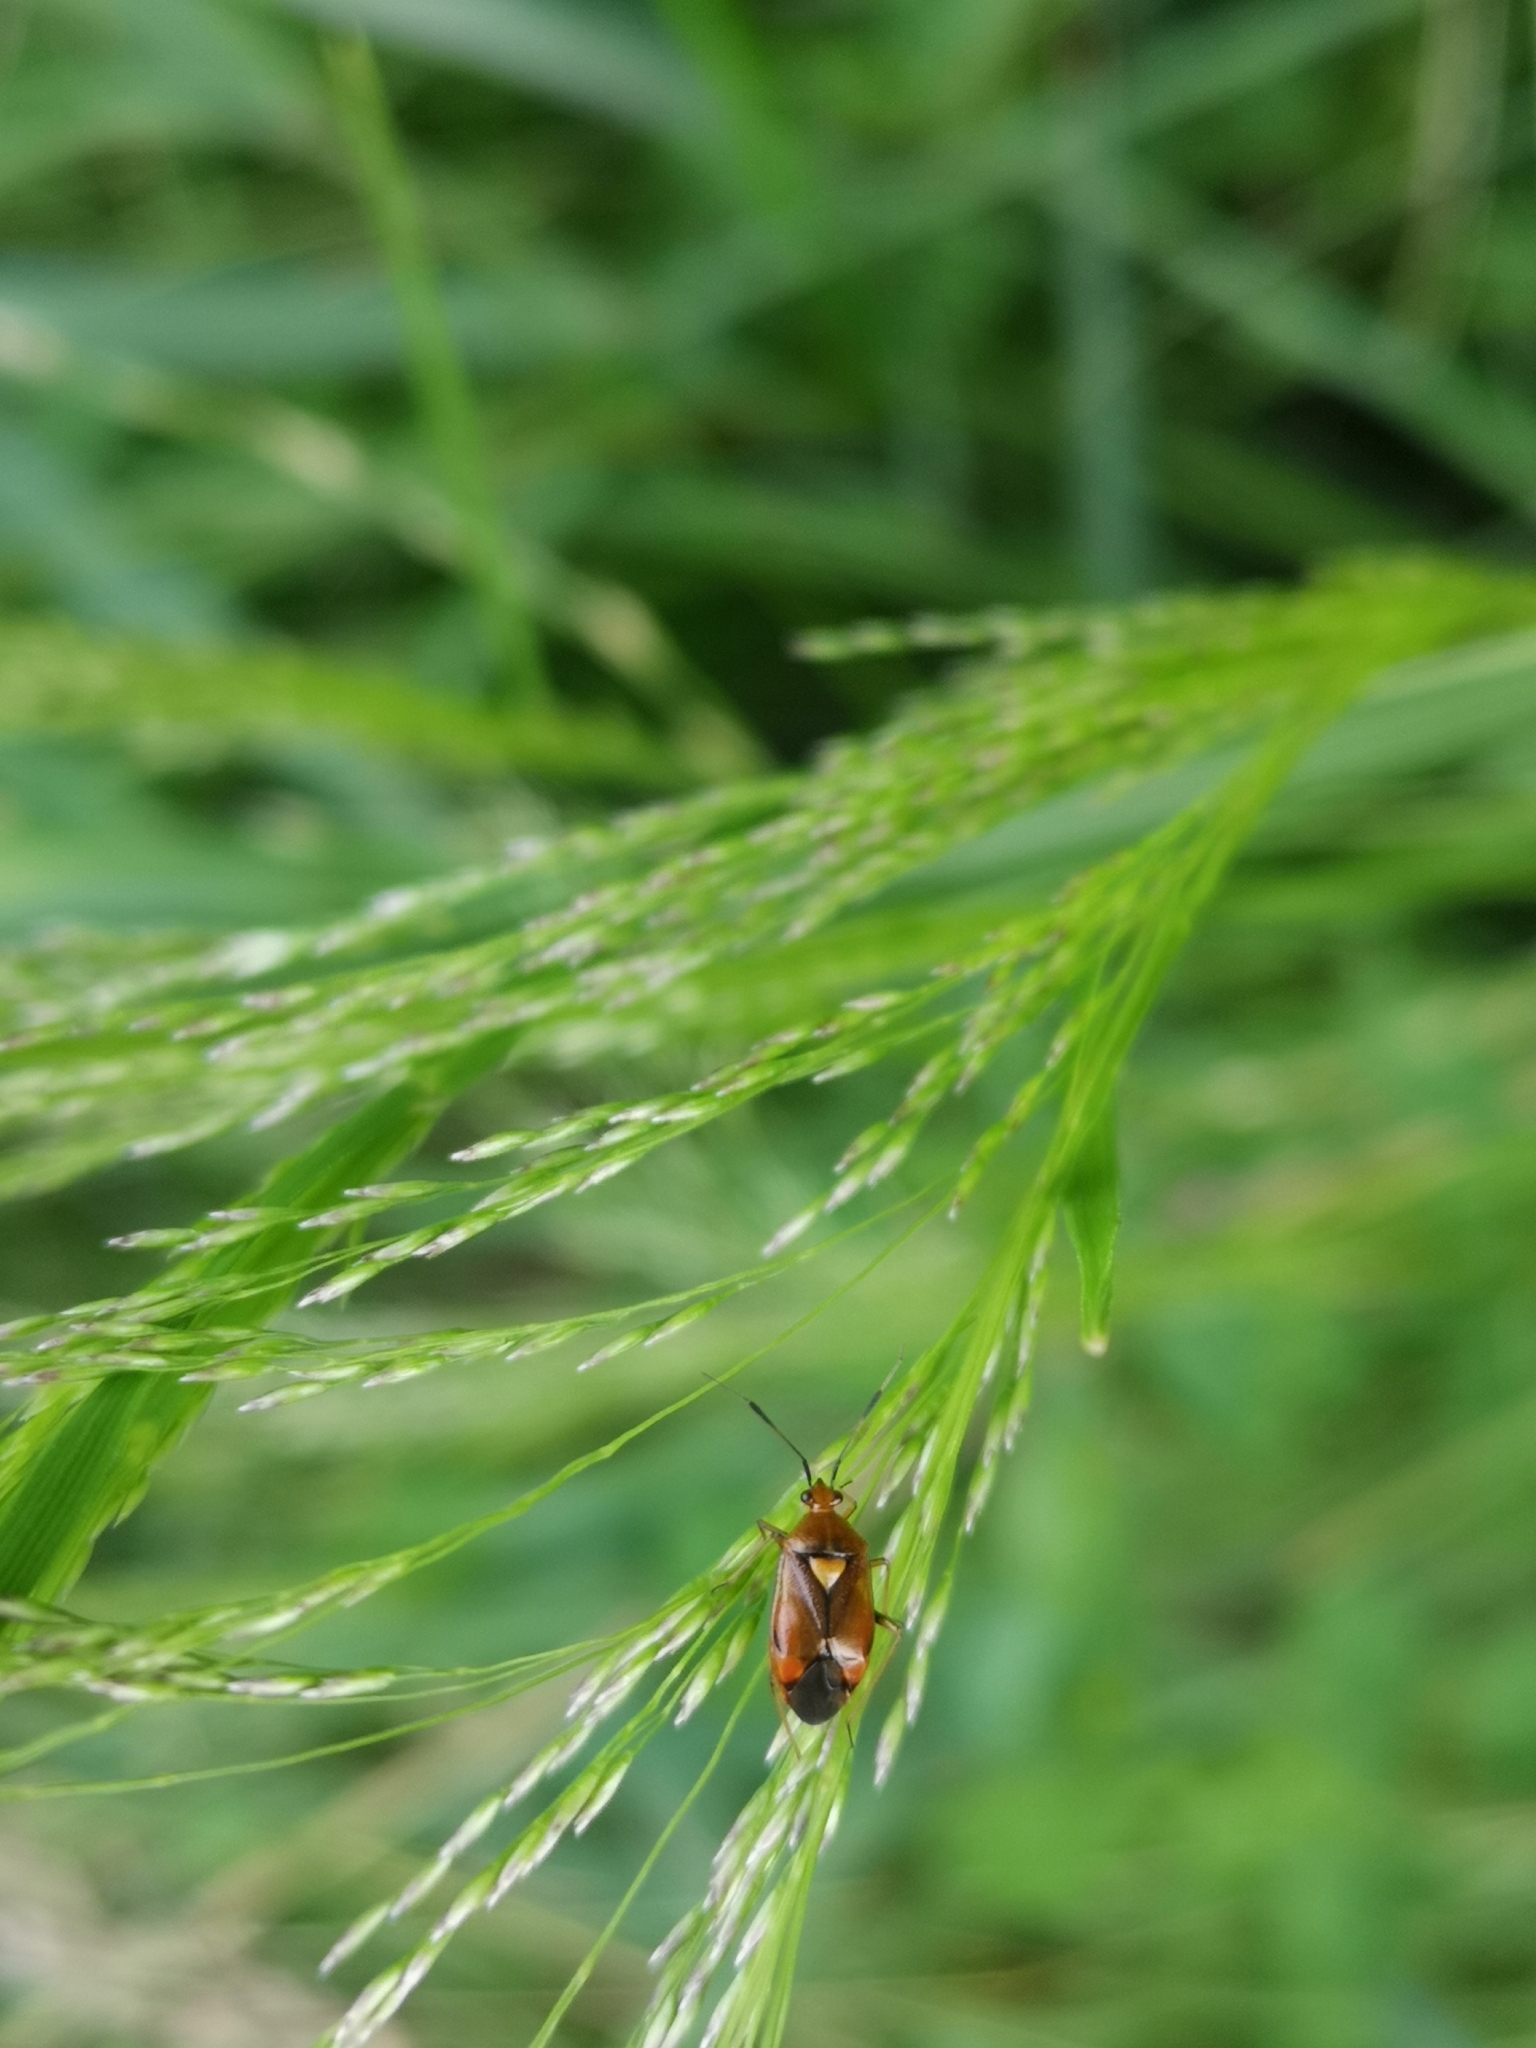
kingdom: Animalia
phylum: Arthropoda
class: Insecta
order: Hemiptera
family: Miridae
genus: Deraeocoris
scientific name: Deraeocoris ruber
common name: Plant bug
